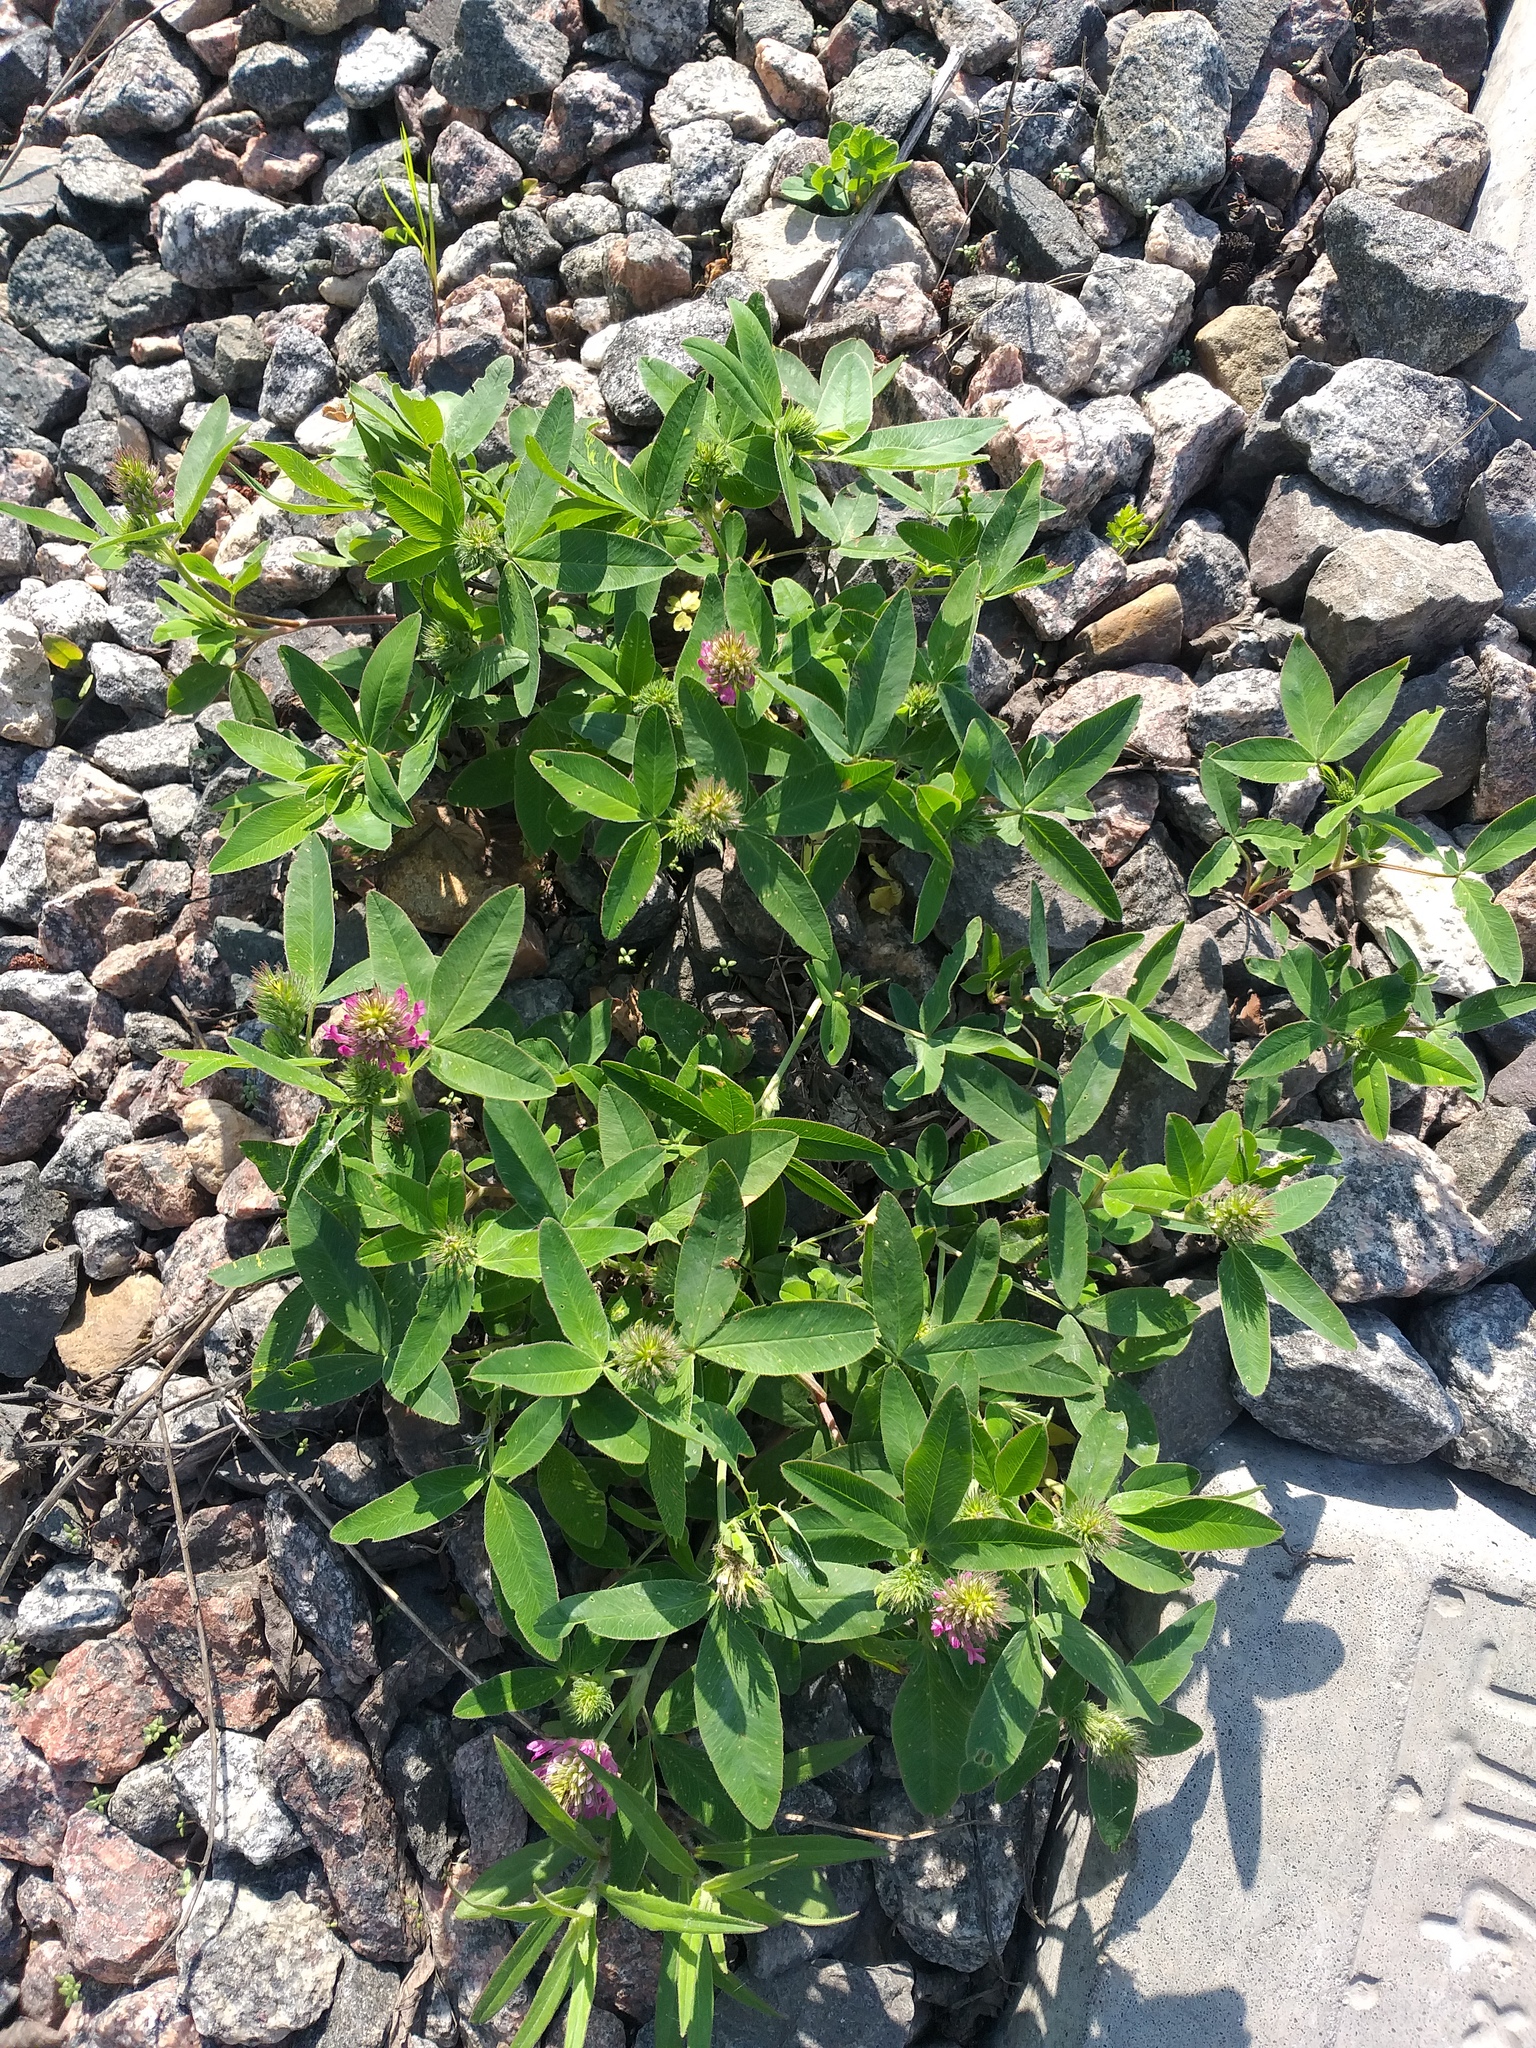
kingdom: Plantae
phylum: Tracheophyta
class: Magnoliopsida
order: Fabales
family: Fabaceae
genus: Trifolium
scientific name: Trifolium medium
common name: Zigzag clover
